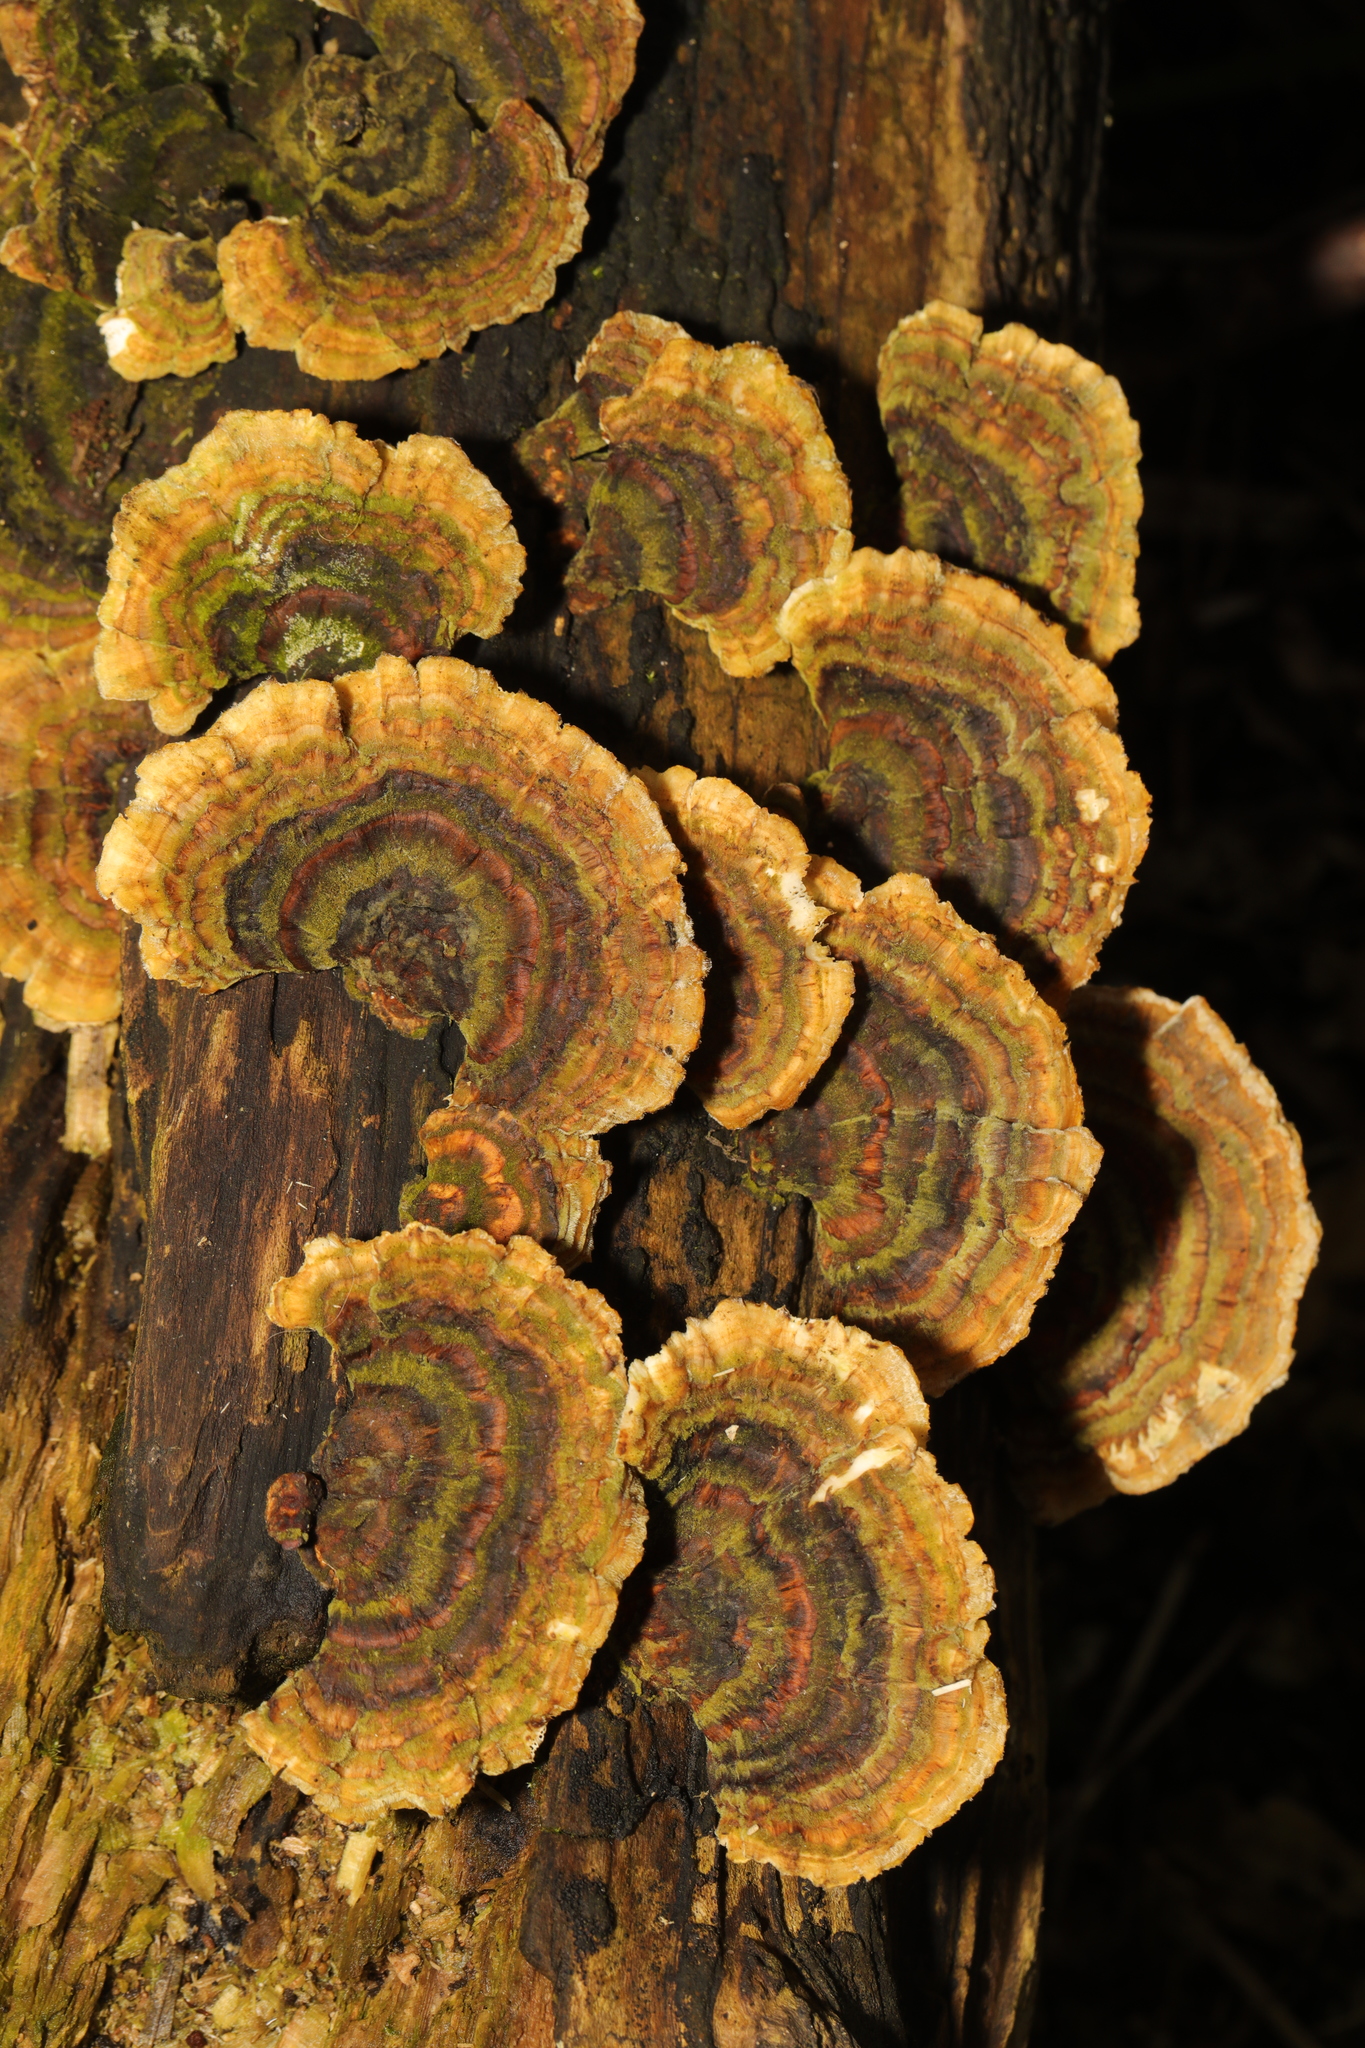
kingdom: Fungi
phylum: Basidiomycota
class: Agaricomycetes
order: Polyporales
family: Polyporaceae
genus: Trametes
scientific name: Trametes versicolor
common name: Turkeytail
